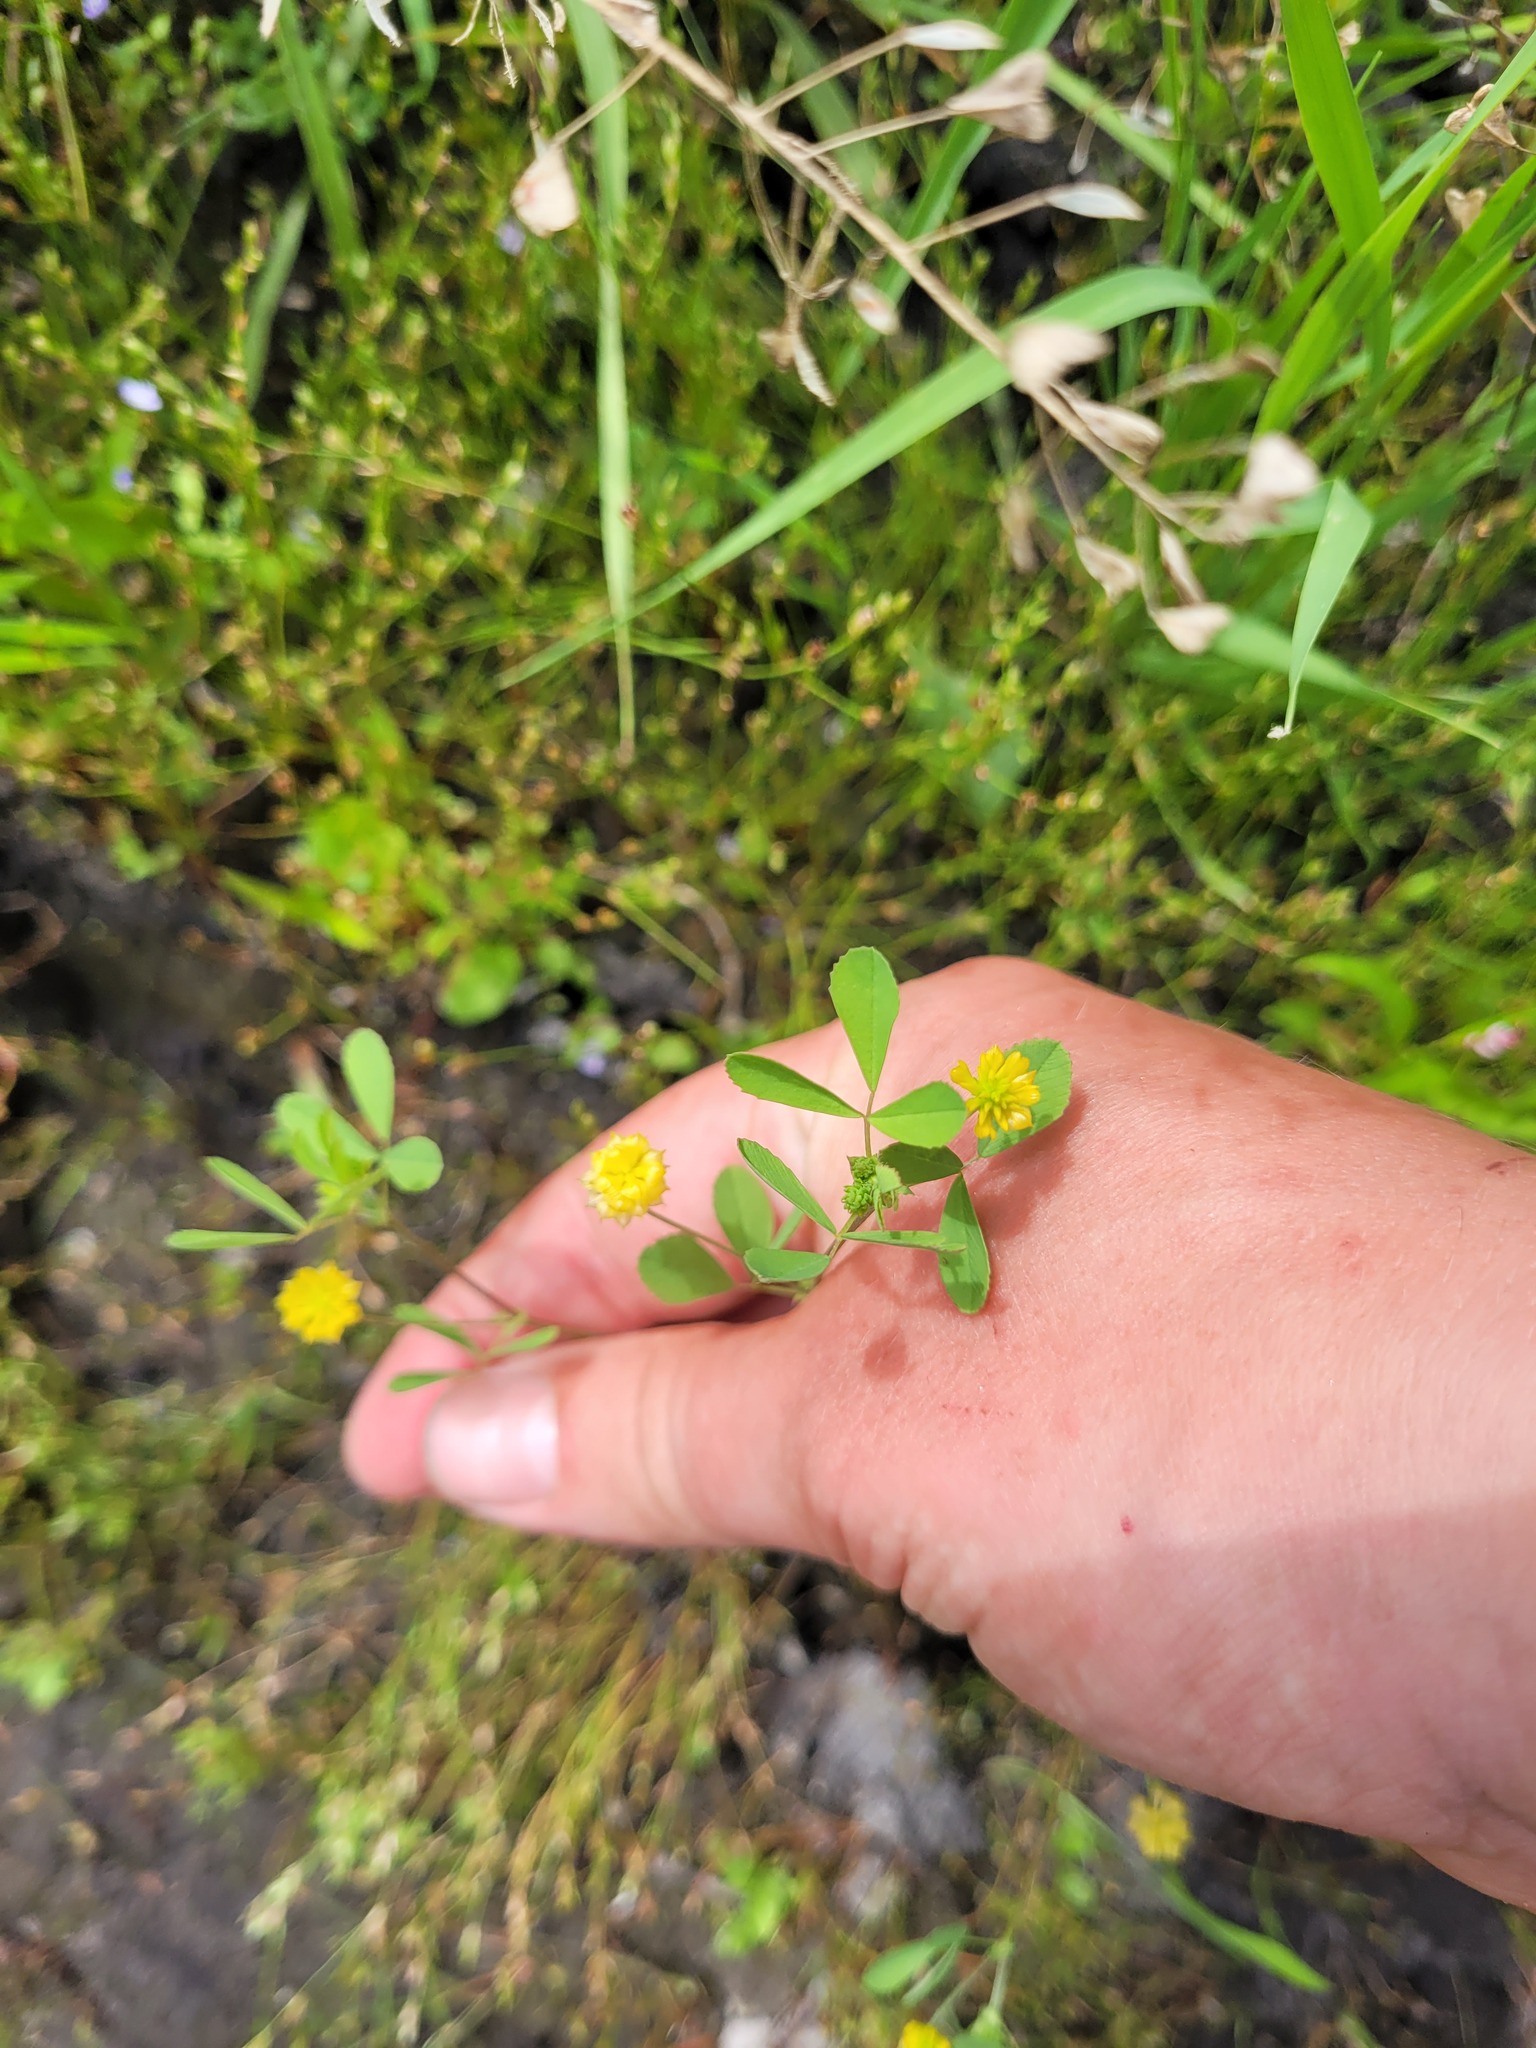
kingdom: Plantae
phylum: Tracheophyta
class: Magnoliopsida
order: Fabales
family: Fabaceae
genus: Trifolium
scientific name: Trifolium campestre
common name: Field clover
